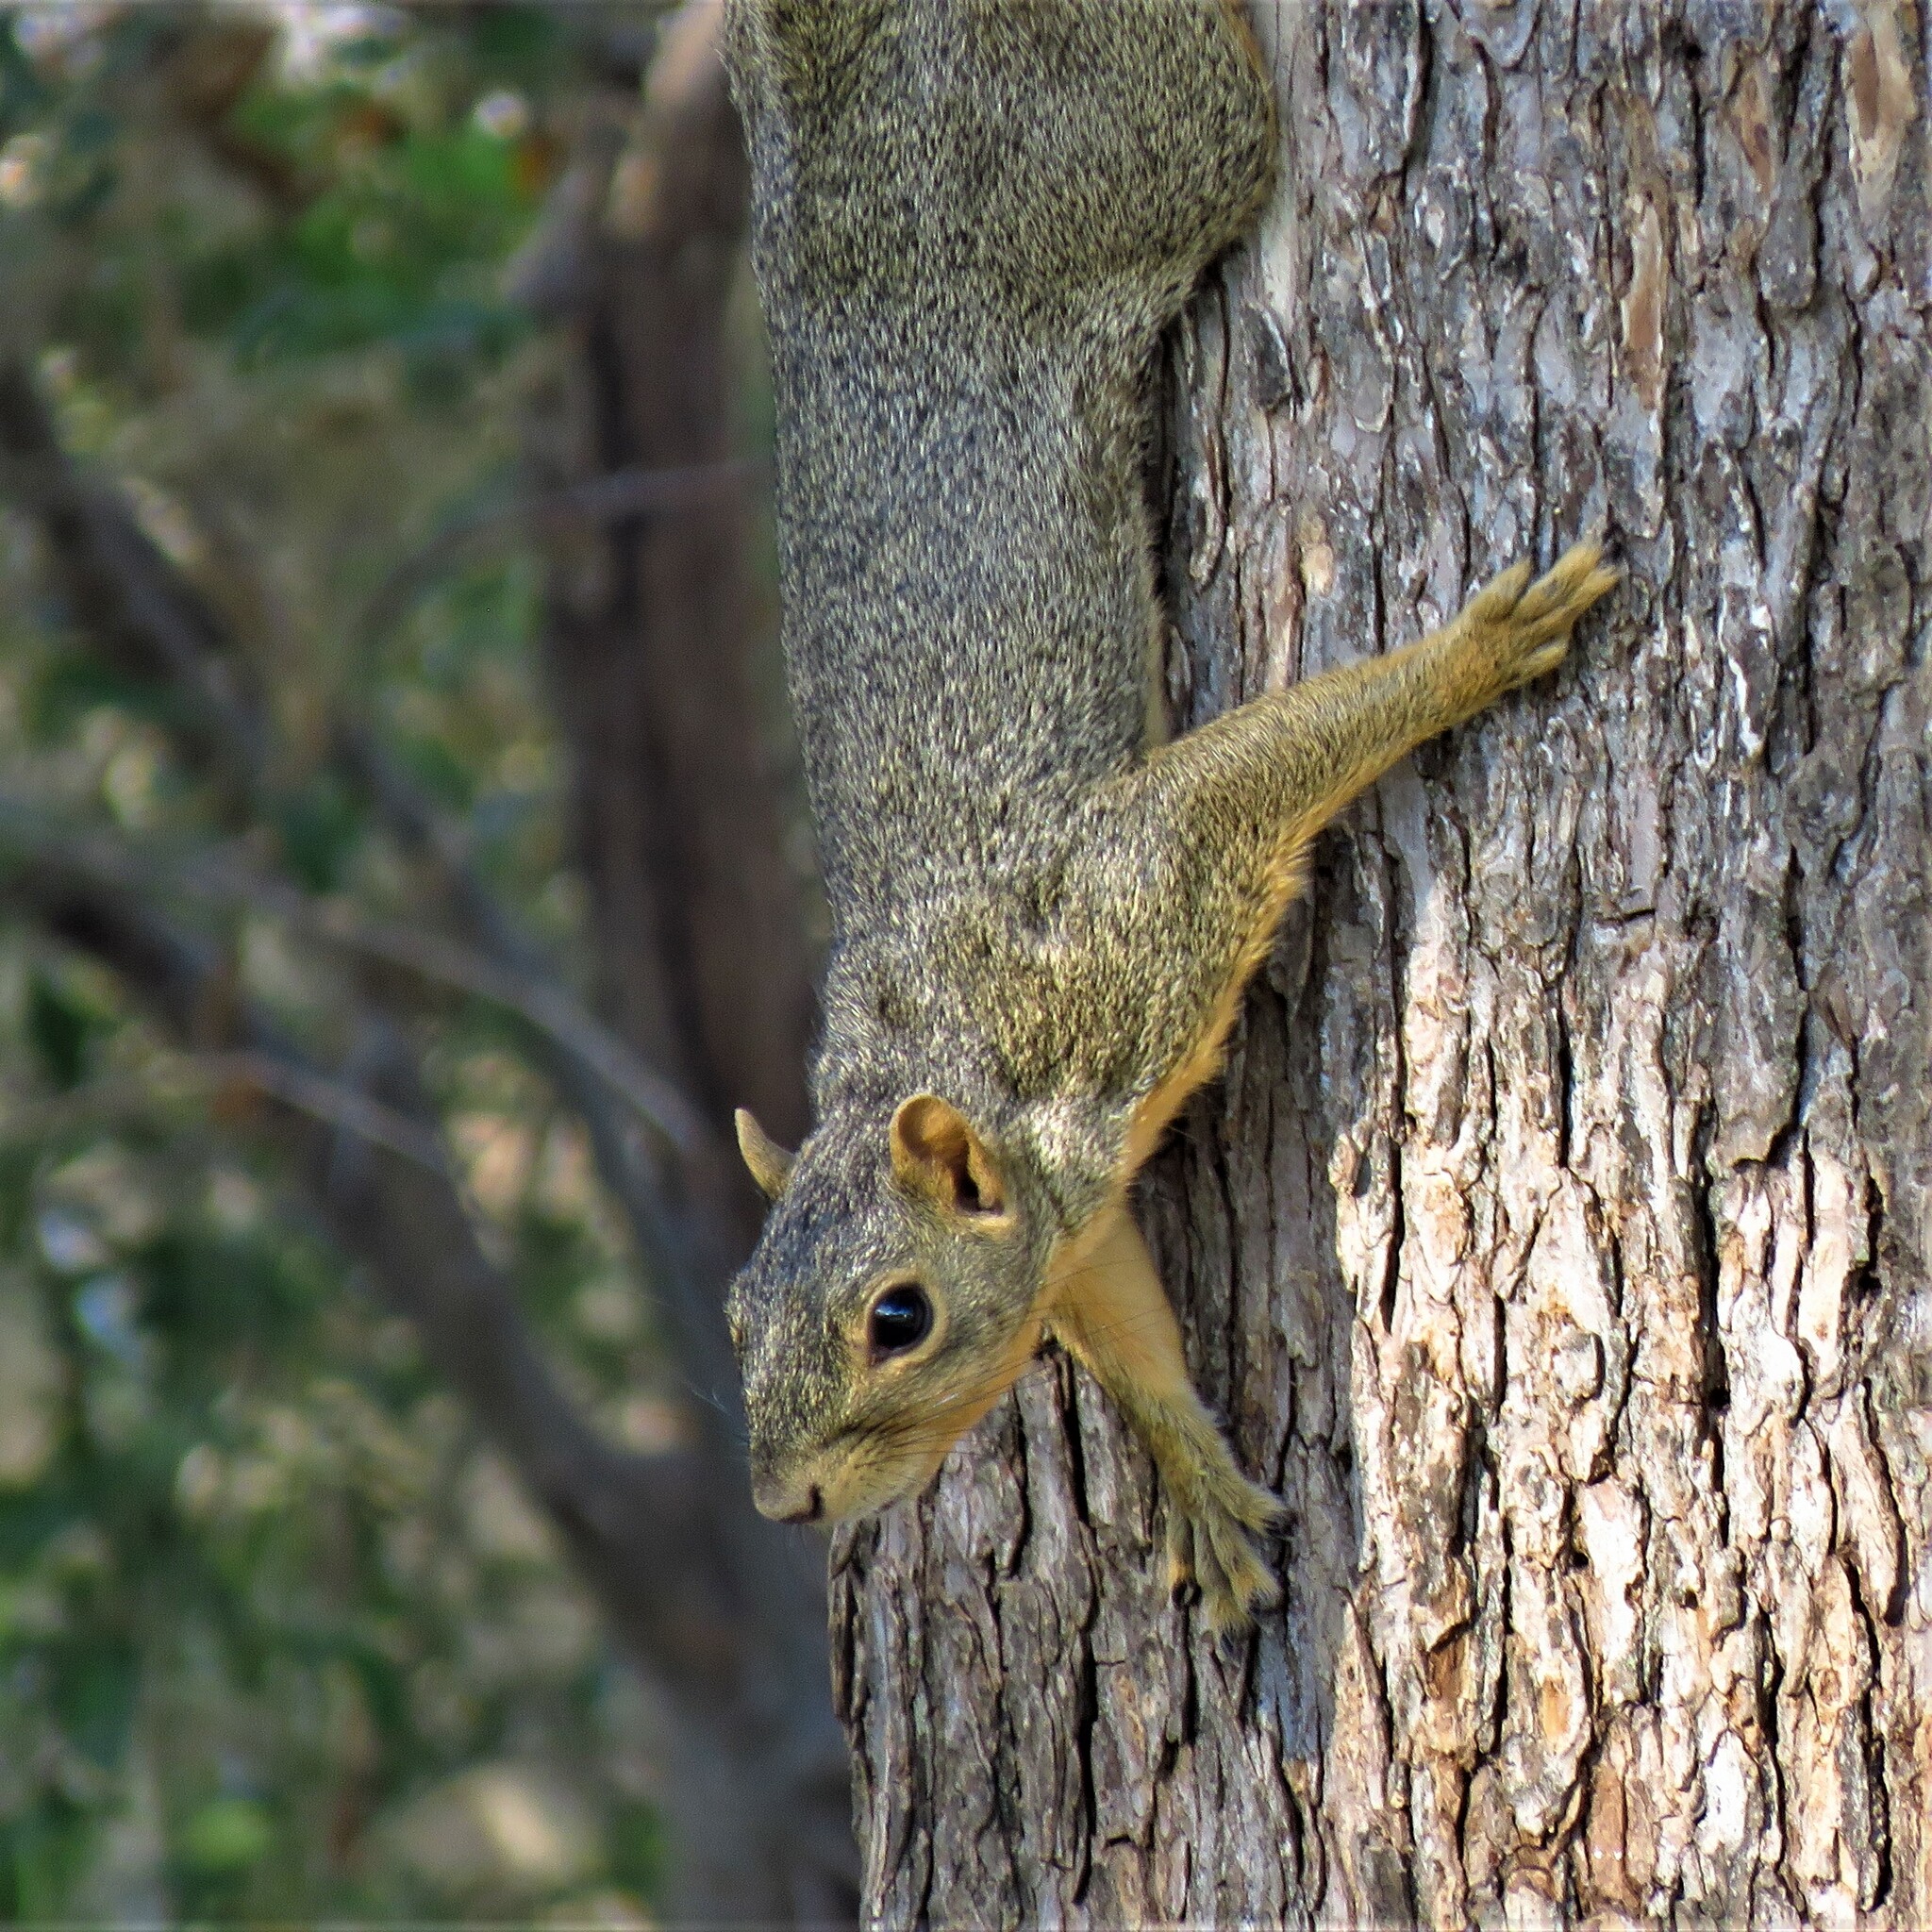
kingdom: Animalia
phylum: Chordata
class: Mammalia
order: Rodentia
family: Sciuridae
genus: Sciurus
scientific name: Sciurus niger
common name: Fox squirrel
